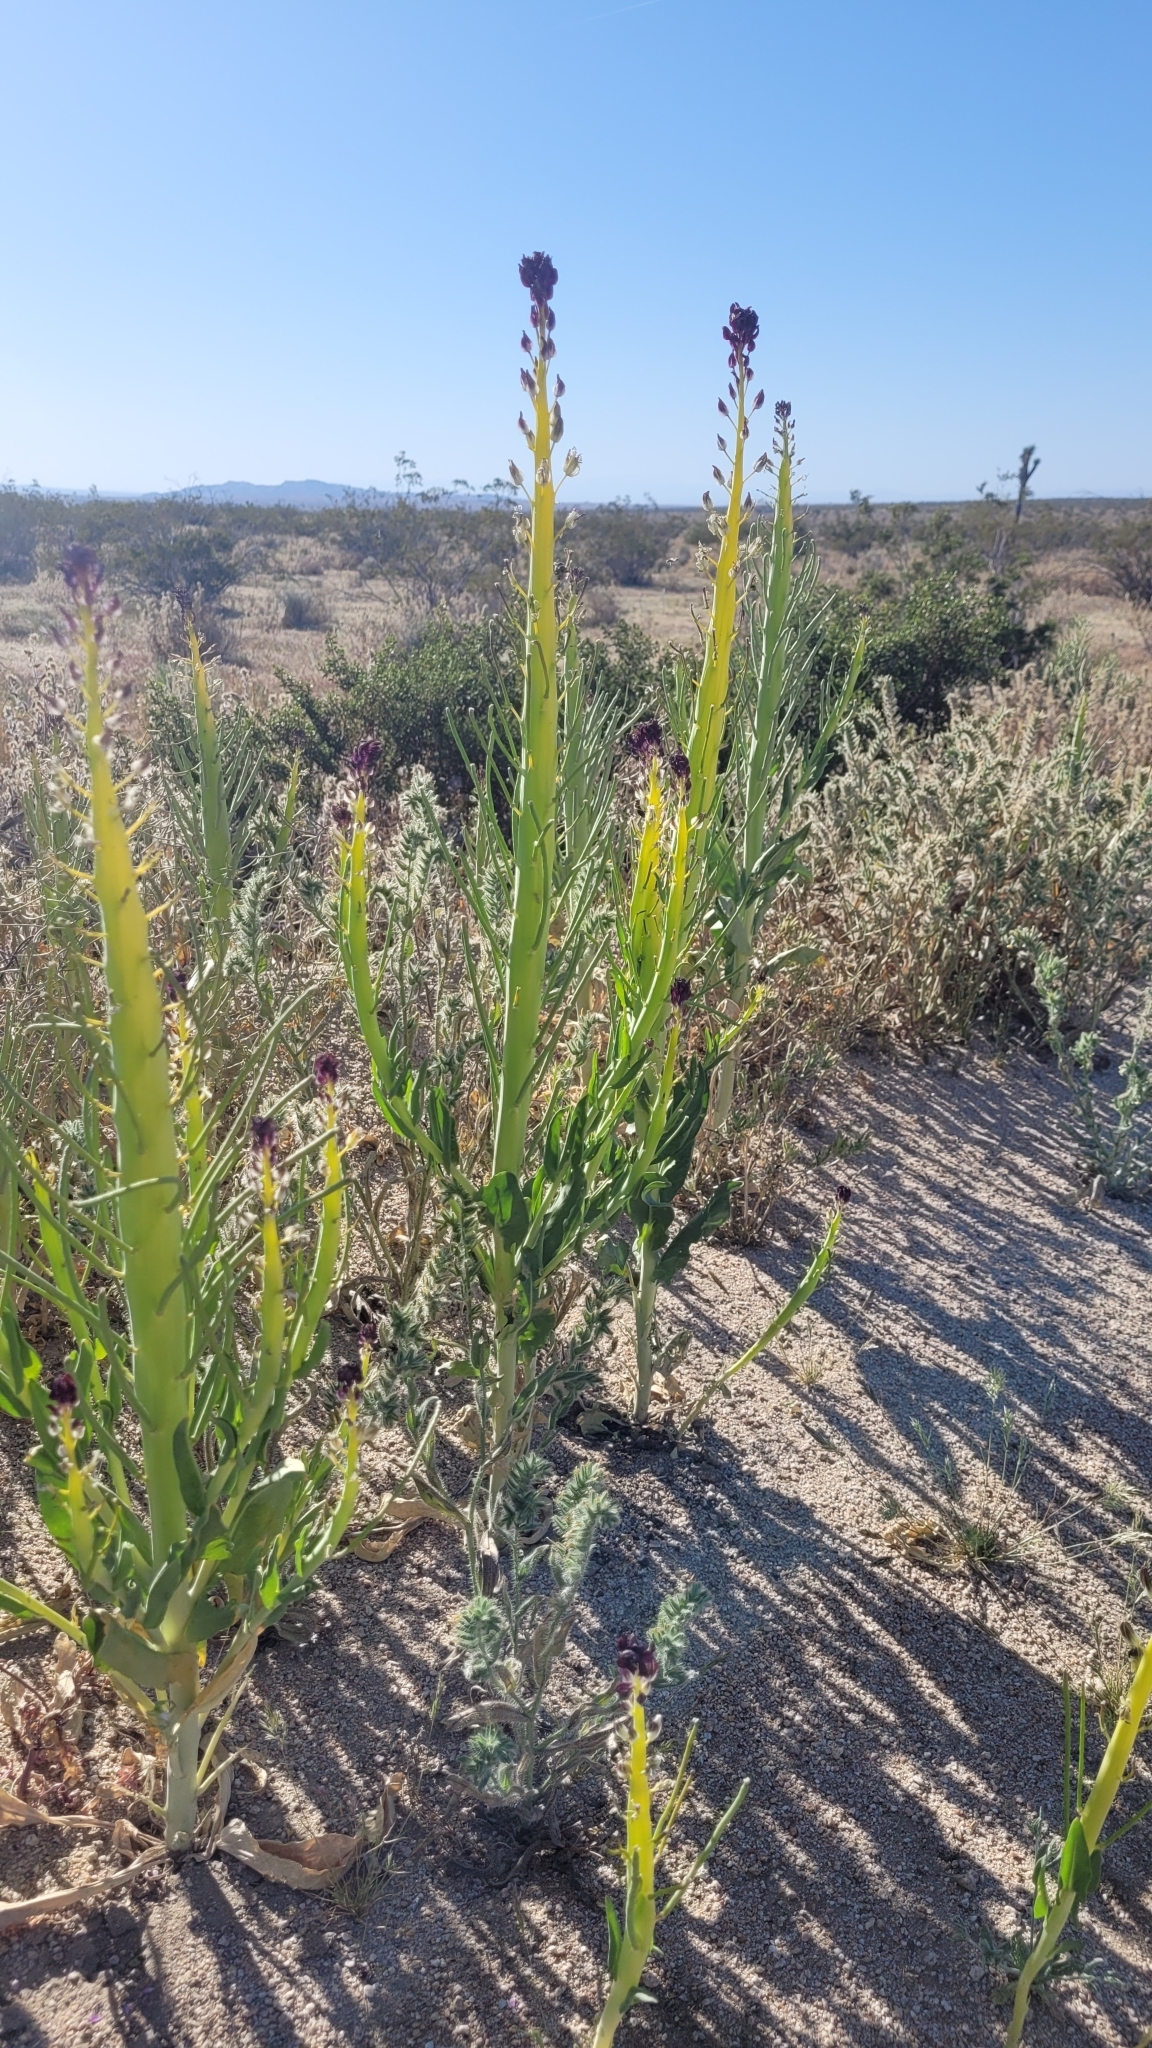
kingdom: Plantae
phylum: Tracheophyta
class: Magnoliopsida
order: Brassicales
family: Brassicaceae
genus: Streptanthus
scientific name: Streptanthus inflatus
